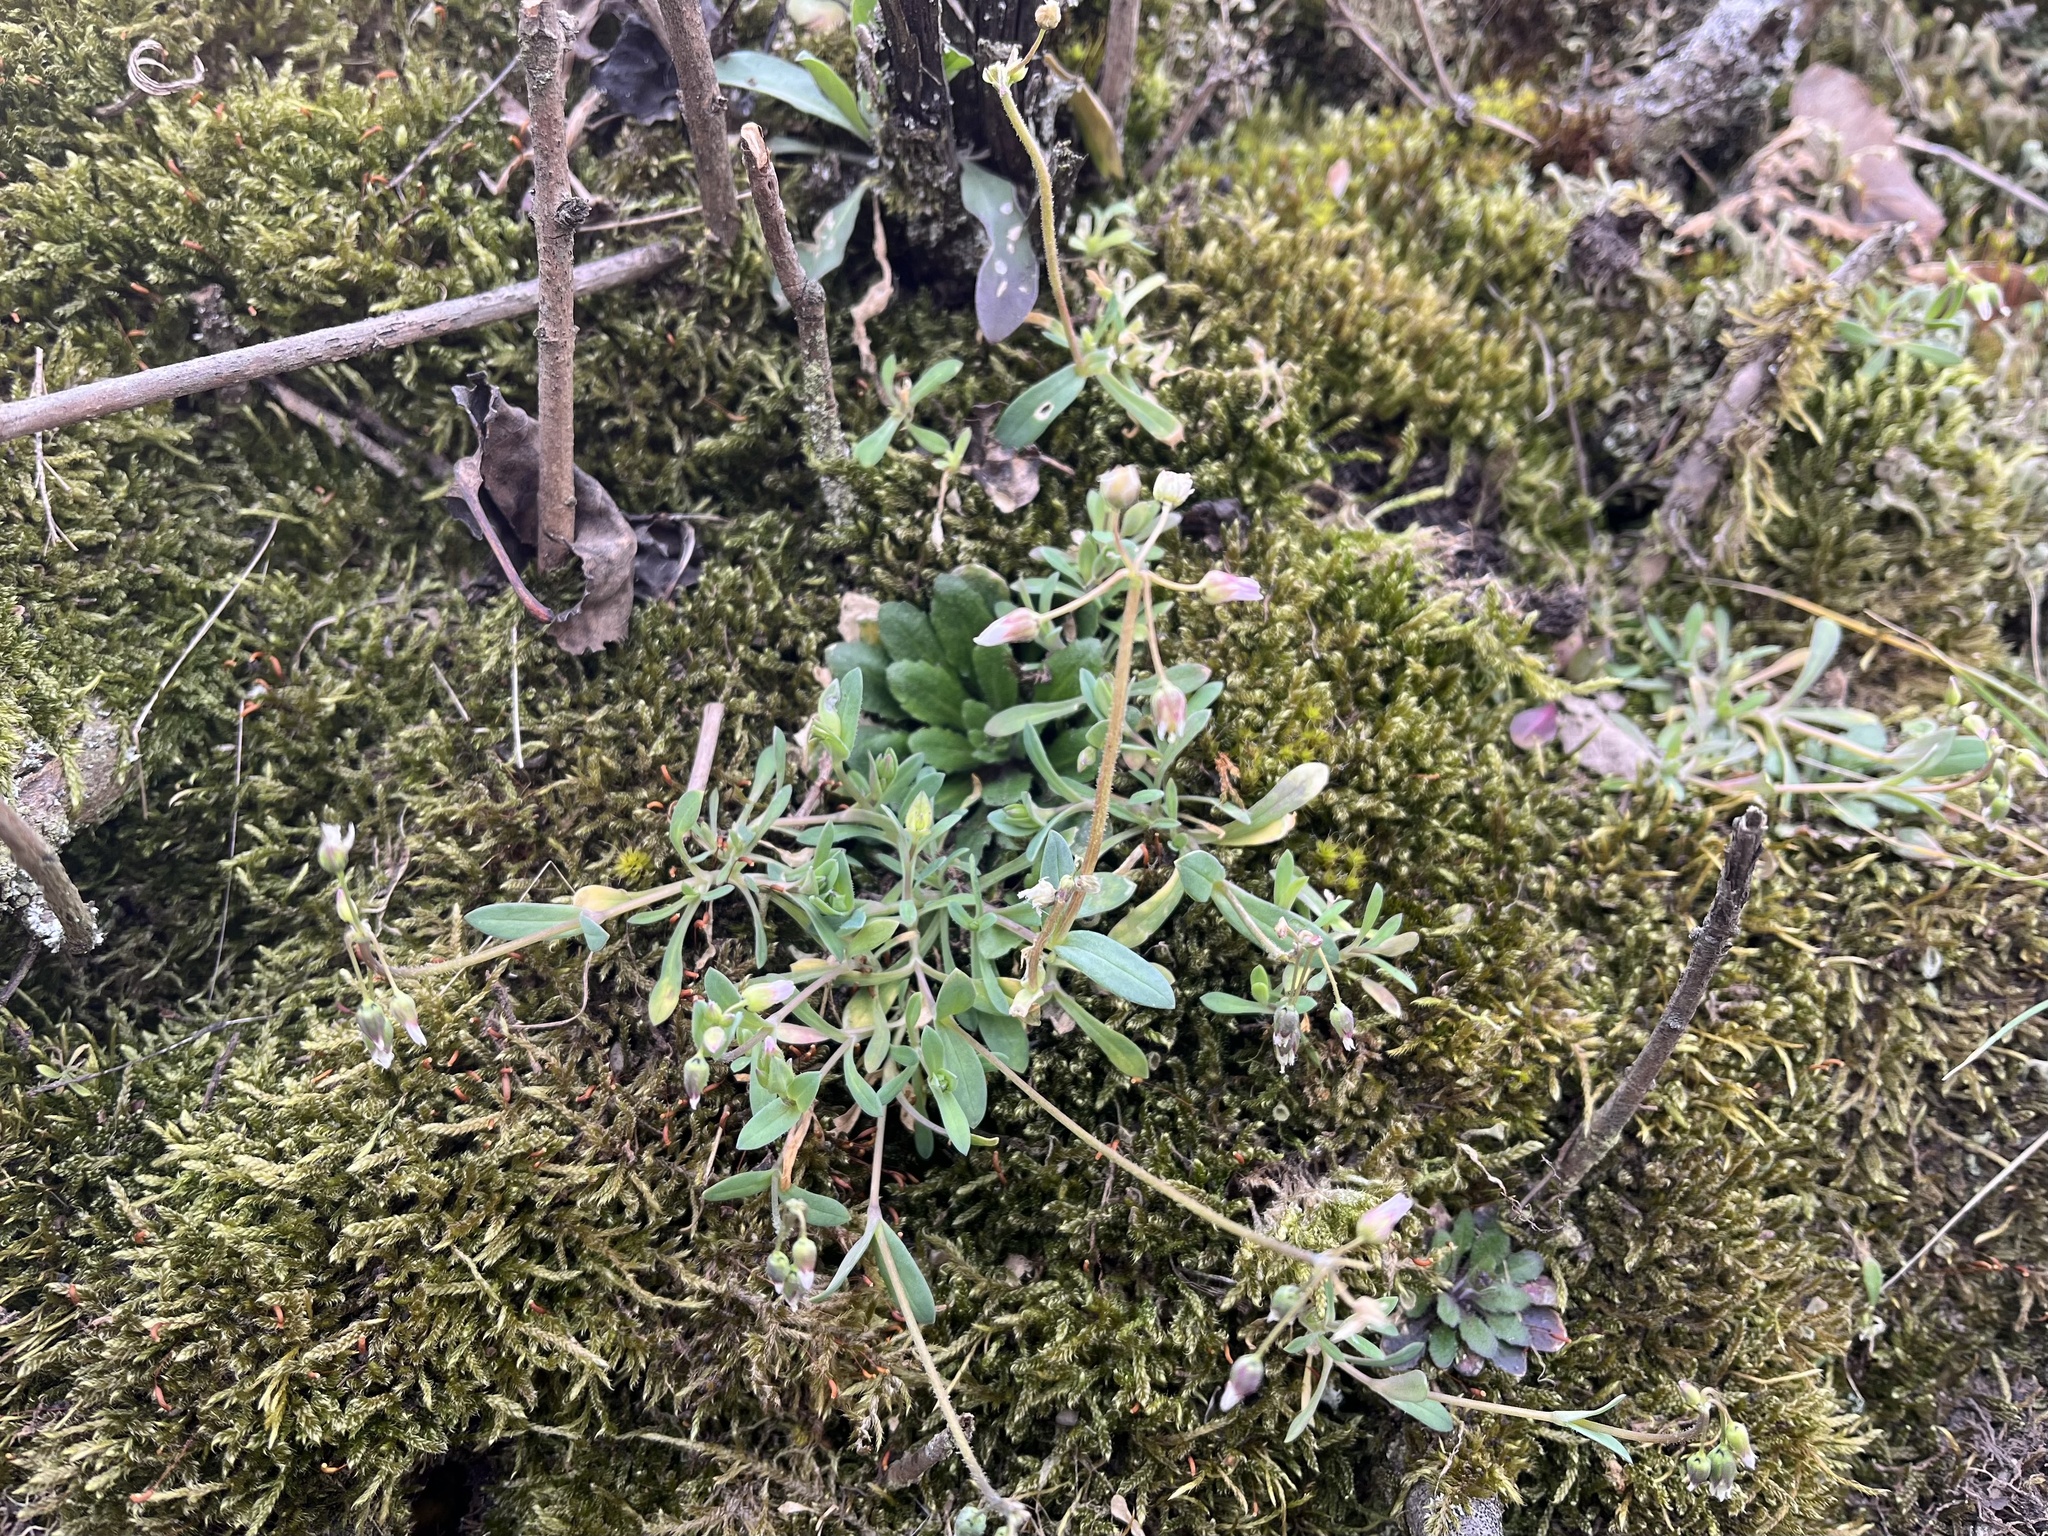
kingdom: Plantae
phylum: Tracheophyta
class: Magnoliopsida
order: Caryophyllales
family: Caryophyllaceae
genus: Holosteum
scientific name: Holosteum umbellatum
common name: Jagged chickweed
